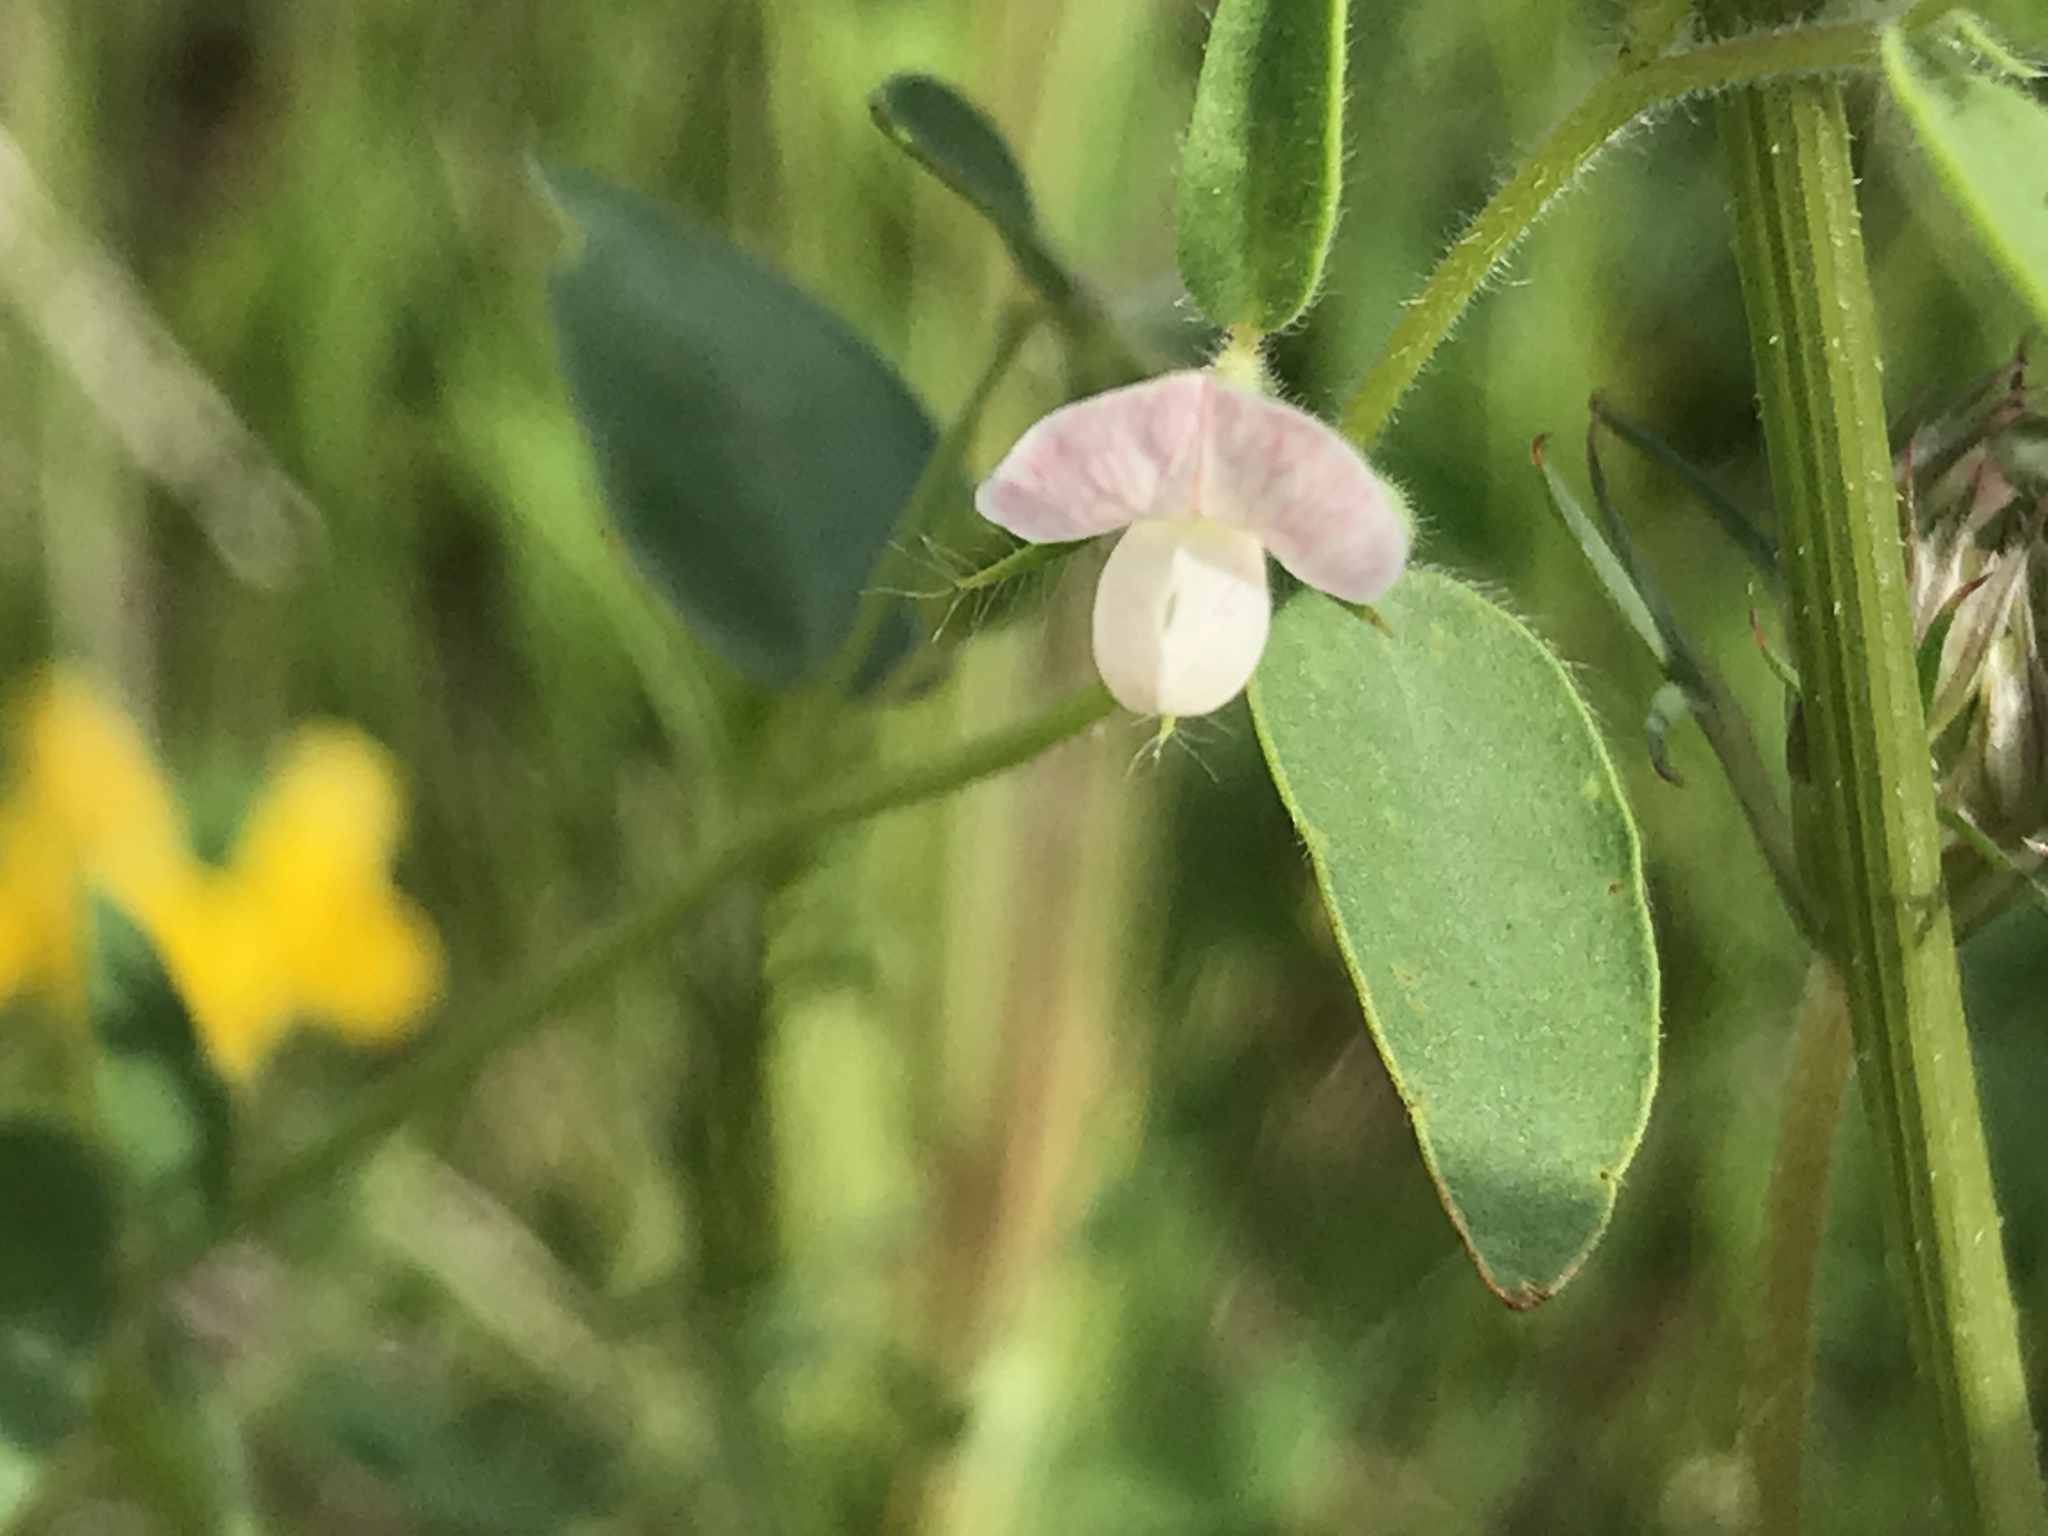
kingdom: Plantae
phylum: Tracheophyta
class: Magnoliopsida
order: Fabales
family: Fabaceae
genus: Acmispon
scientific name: Acmispon americanus
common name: American bird's-foot trefoil
